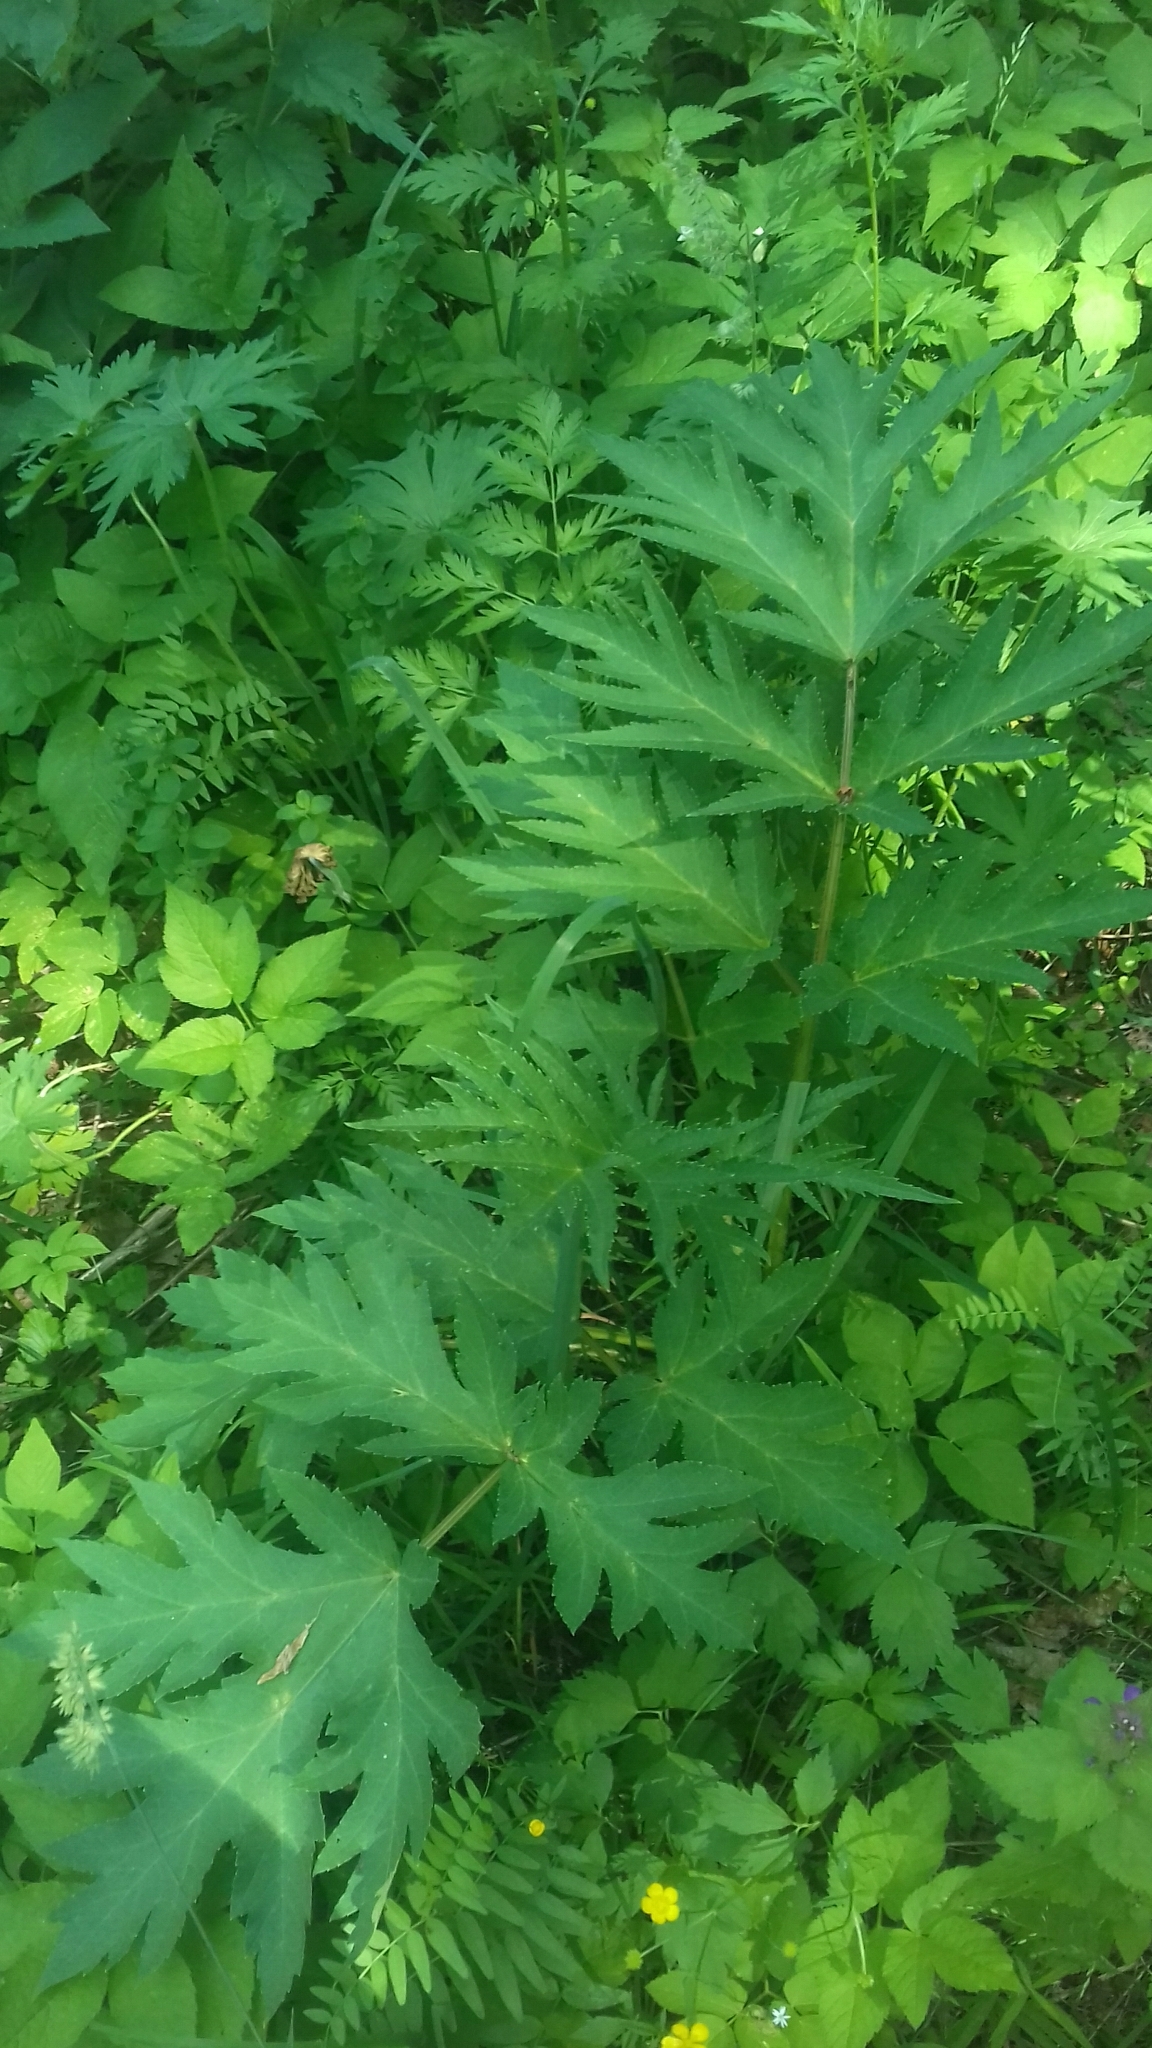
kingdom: Plantae
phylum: Tracheophyta
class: Magnoliopsida
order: Apiales
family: Apiaceae
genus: Heracleum
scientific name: Heracleum sphondylium
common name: Hogweed
